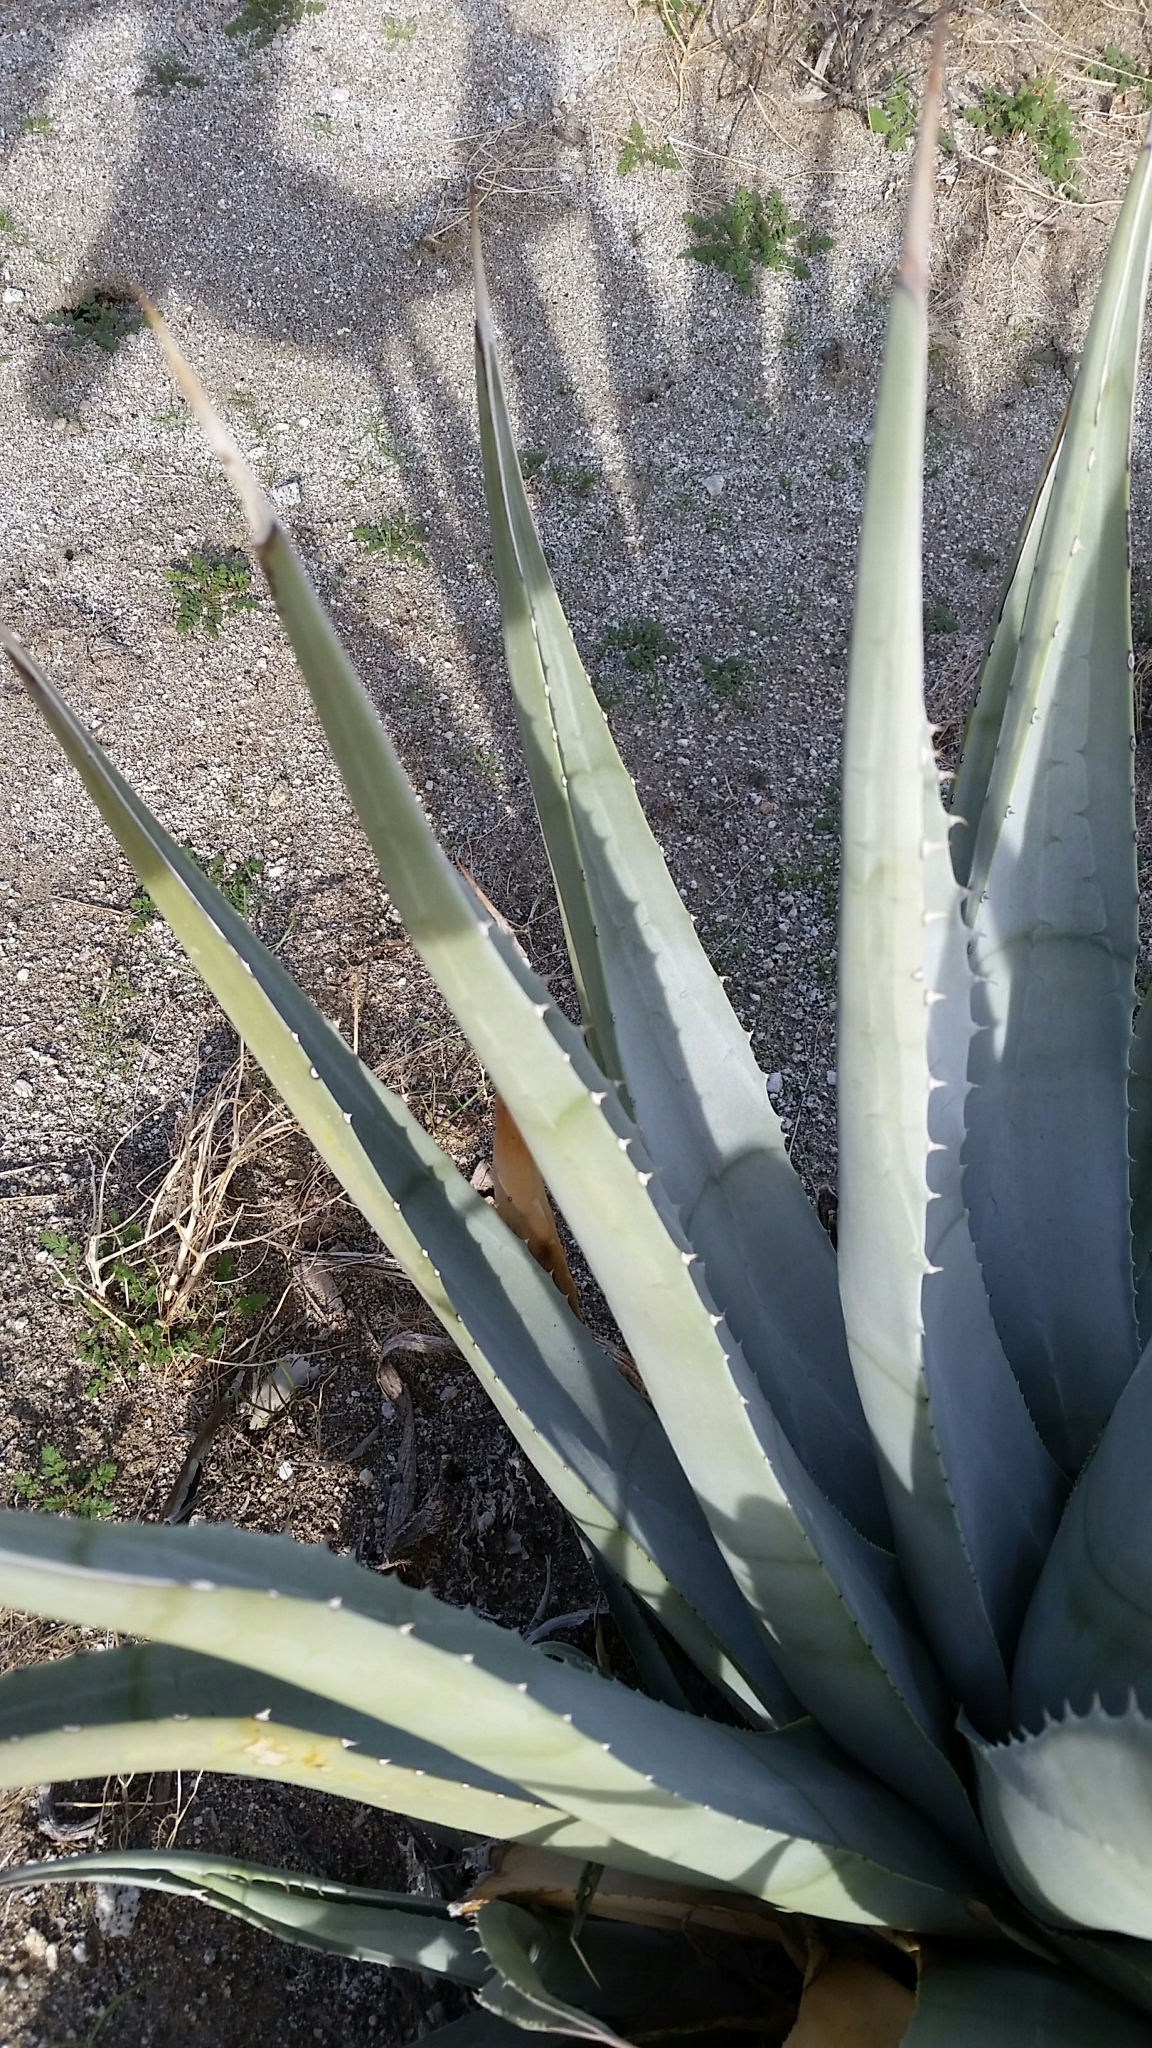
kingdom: Plantae
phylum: Tracheophyta
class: Liliopsida
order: Asparagales
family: Asparagaceae
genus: Agave
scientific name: Agave deserti
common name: Desert agave
